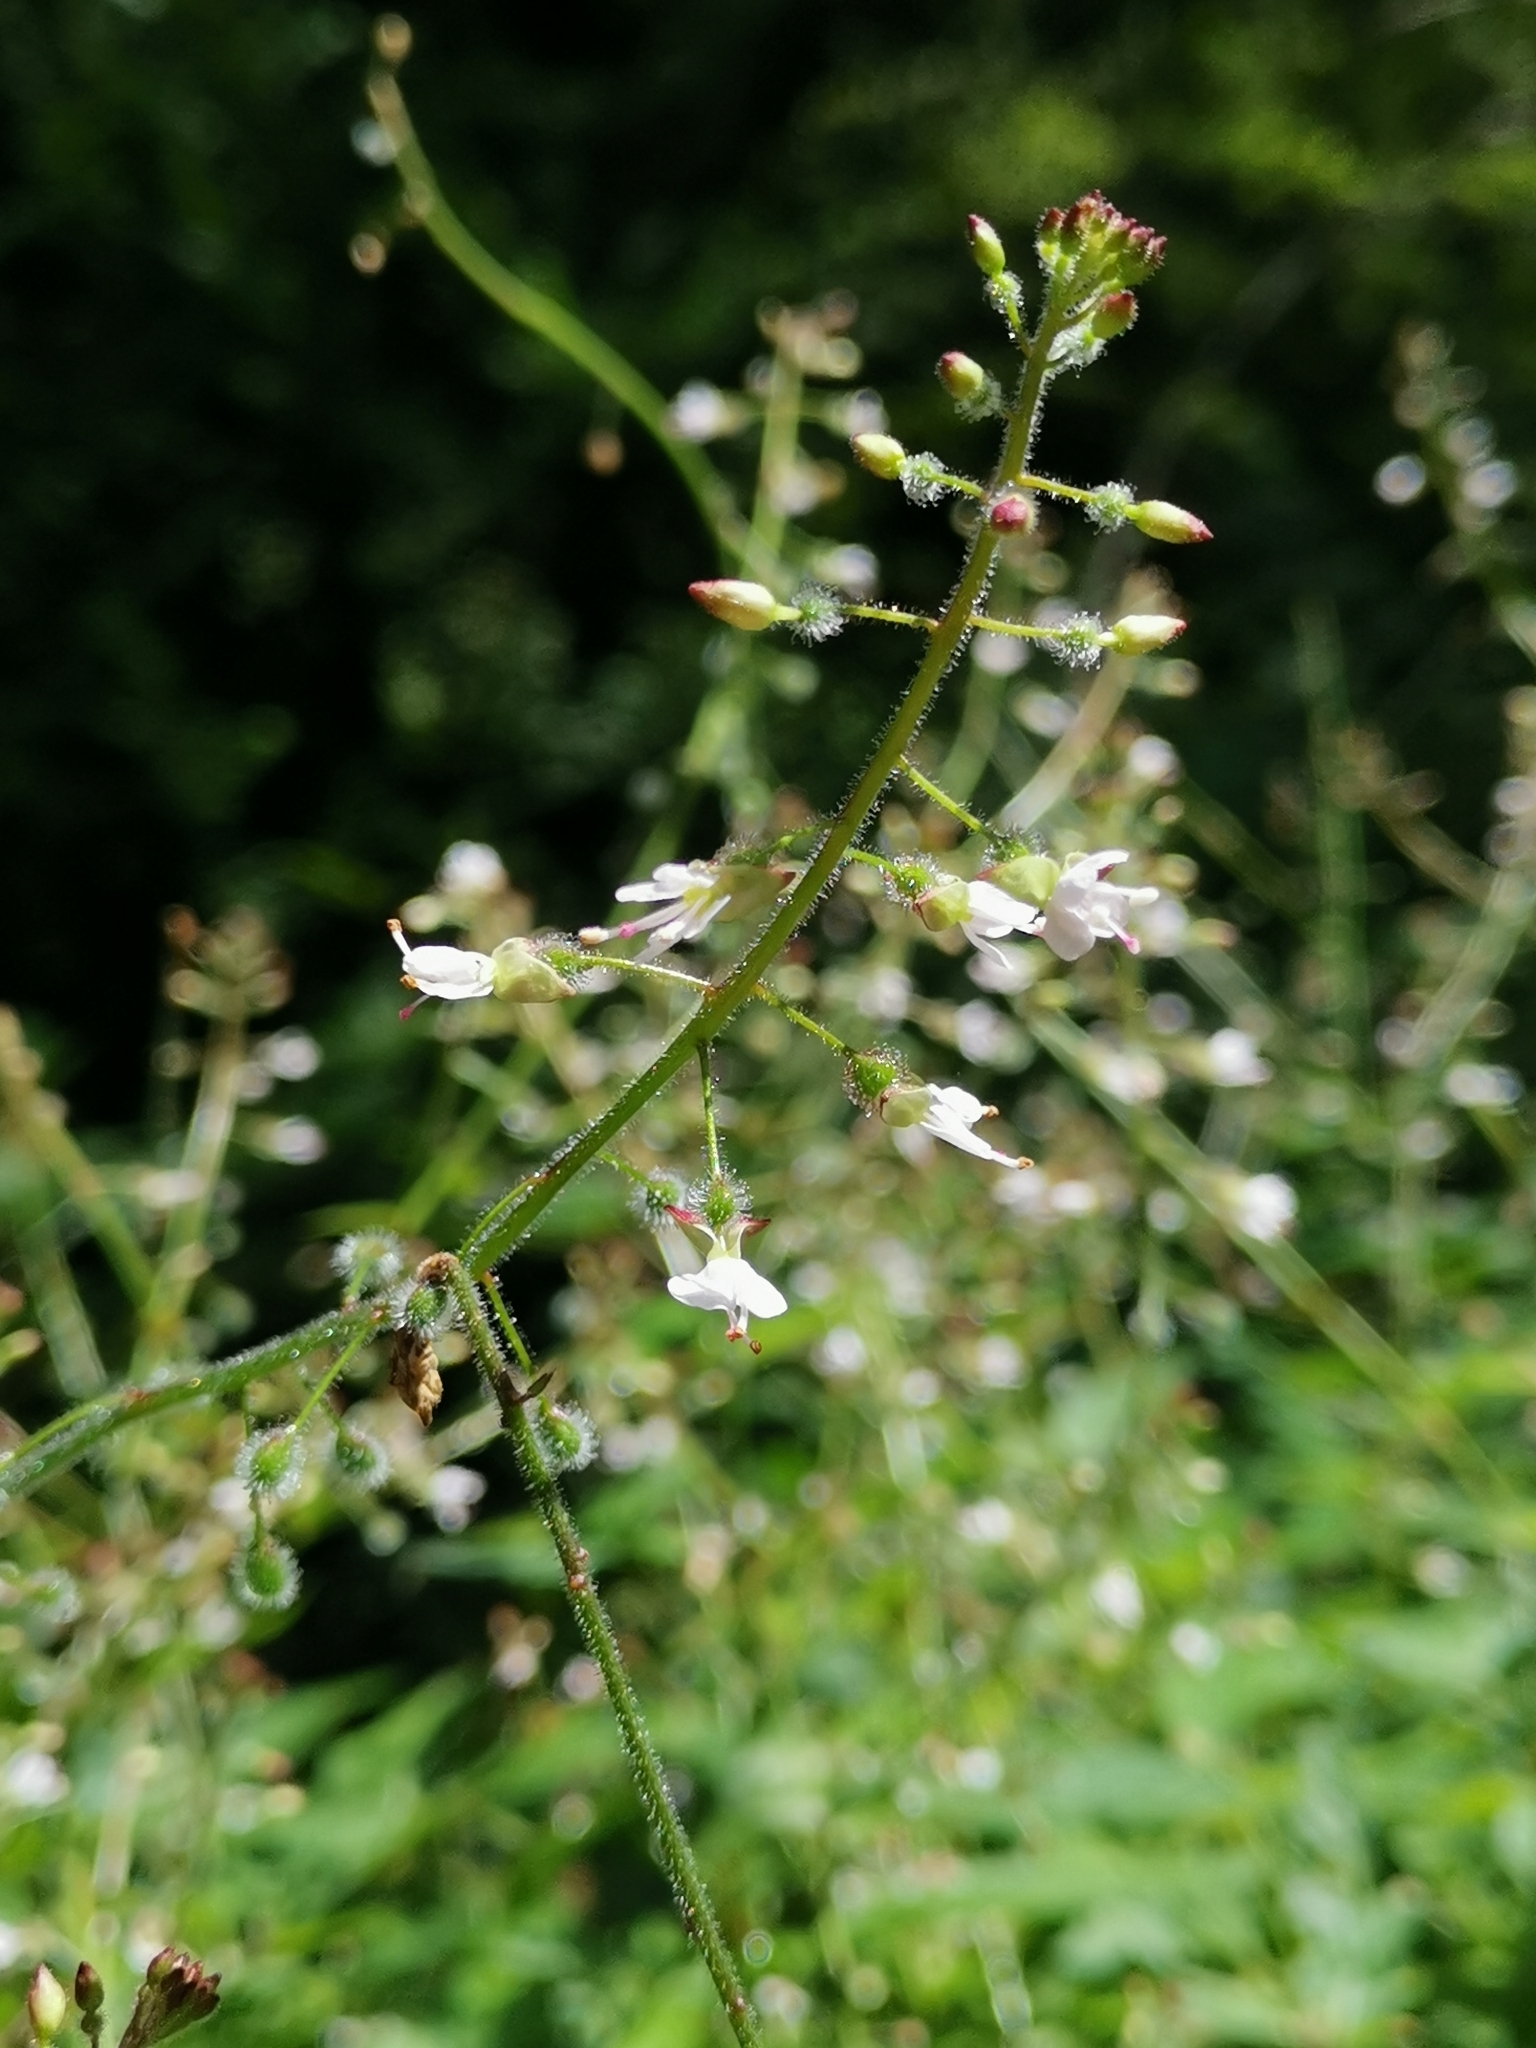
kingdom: Plantae
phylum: Tracheophyta
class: Magnoliopsida
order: Myrtales
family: Onagraceae
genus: Circaea
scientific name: Circaea lutetiana
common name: Enchanter's-nightshade
